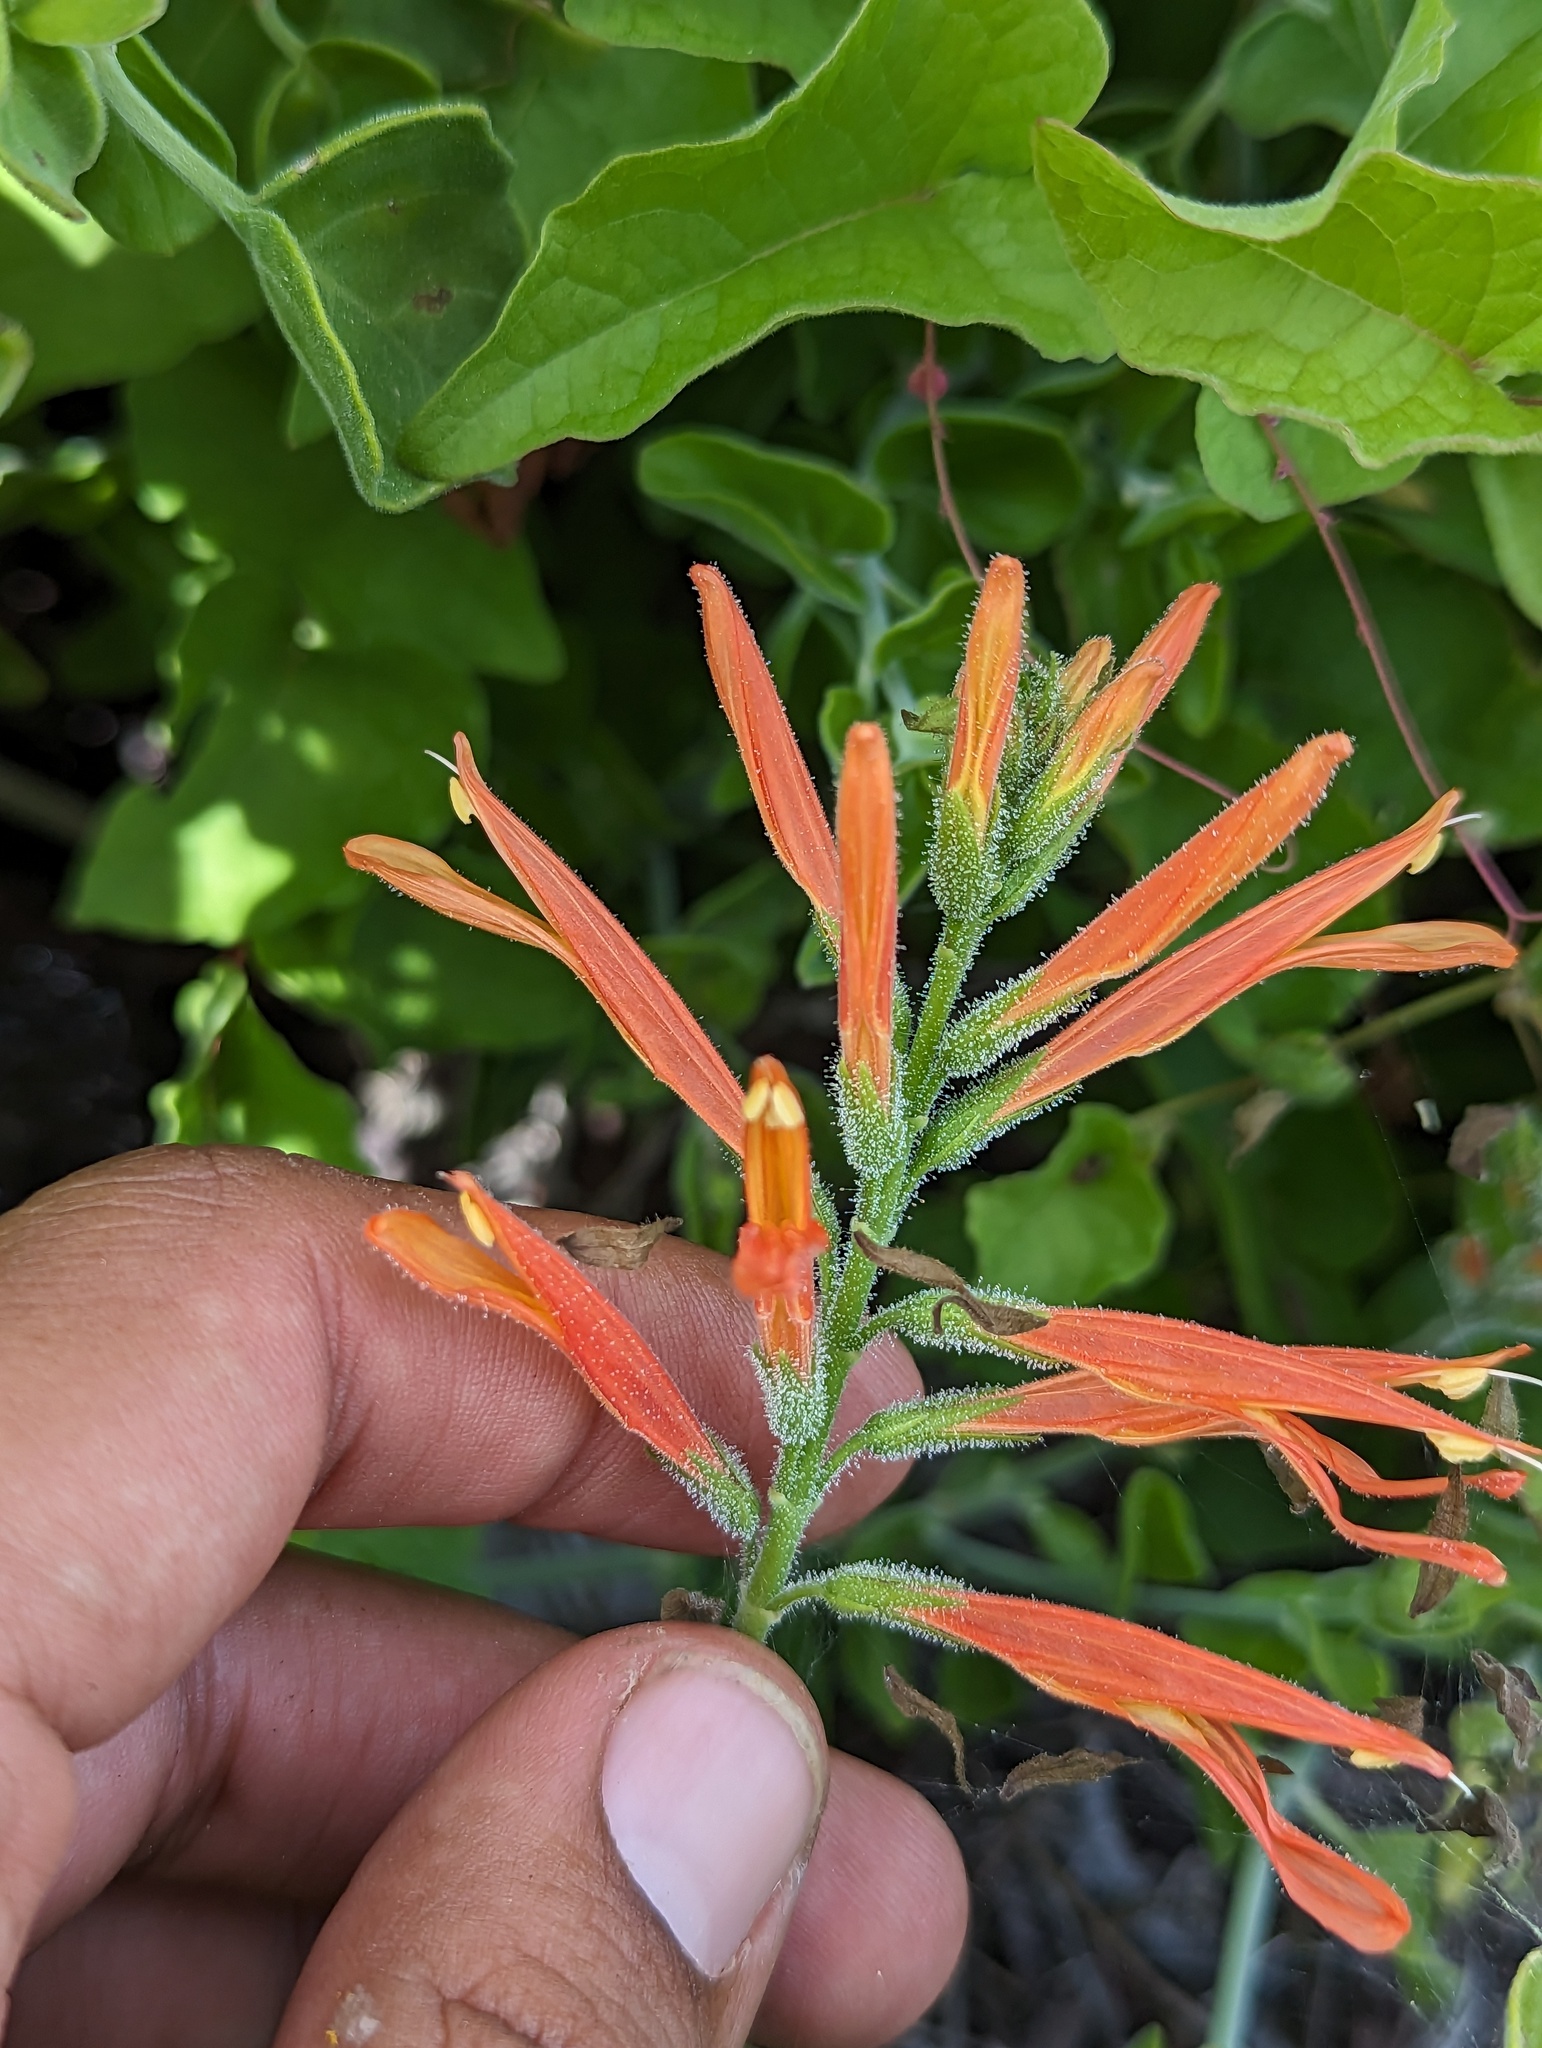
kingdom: Plantae
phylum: Tracheophyta
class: Magnoliopsida
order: Lamiales
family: Acanthaceae
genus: Justicia
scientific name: Justicia californica
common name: Chuparosa-honeysuckle
